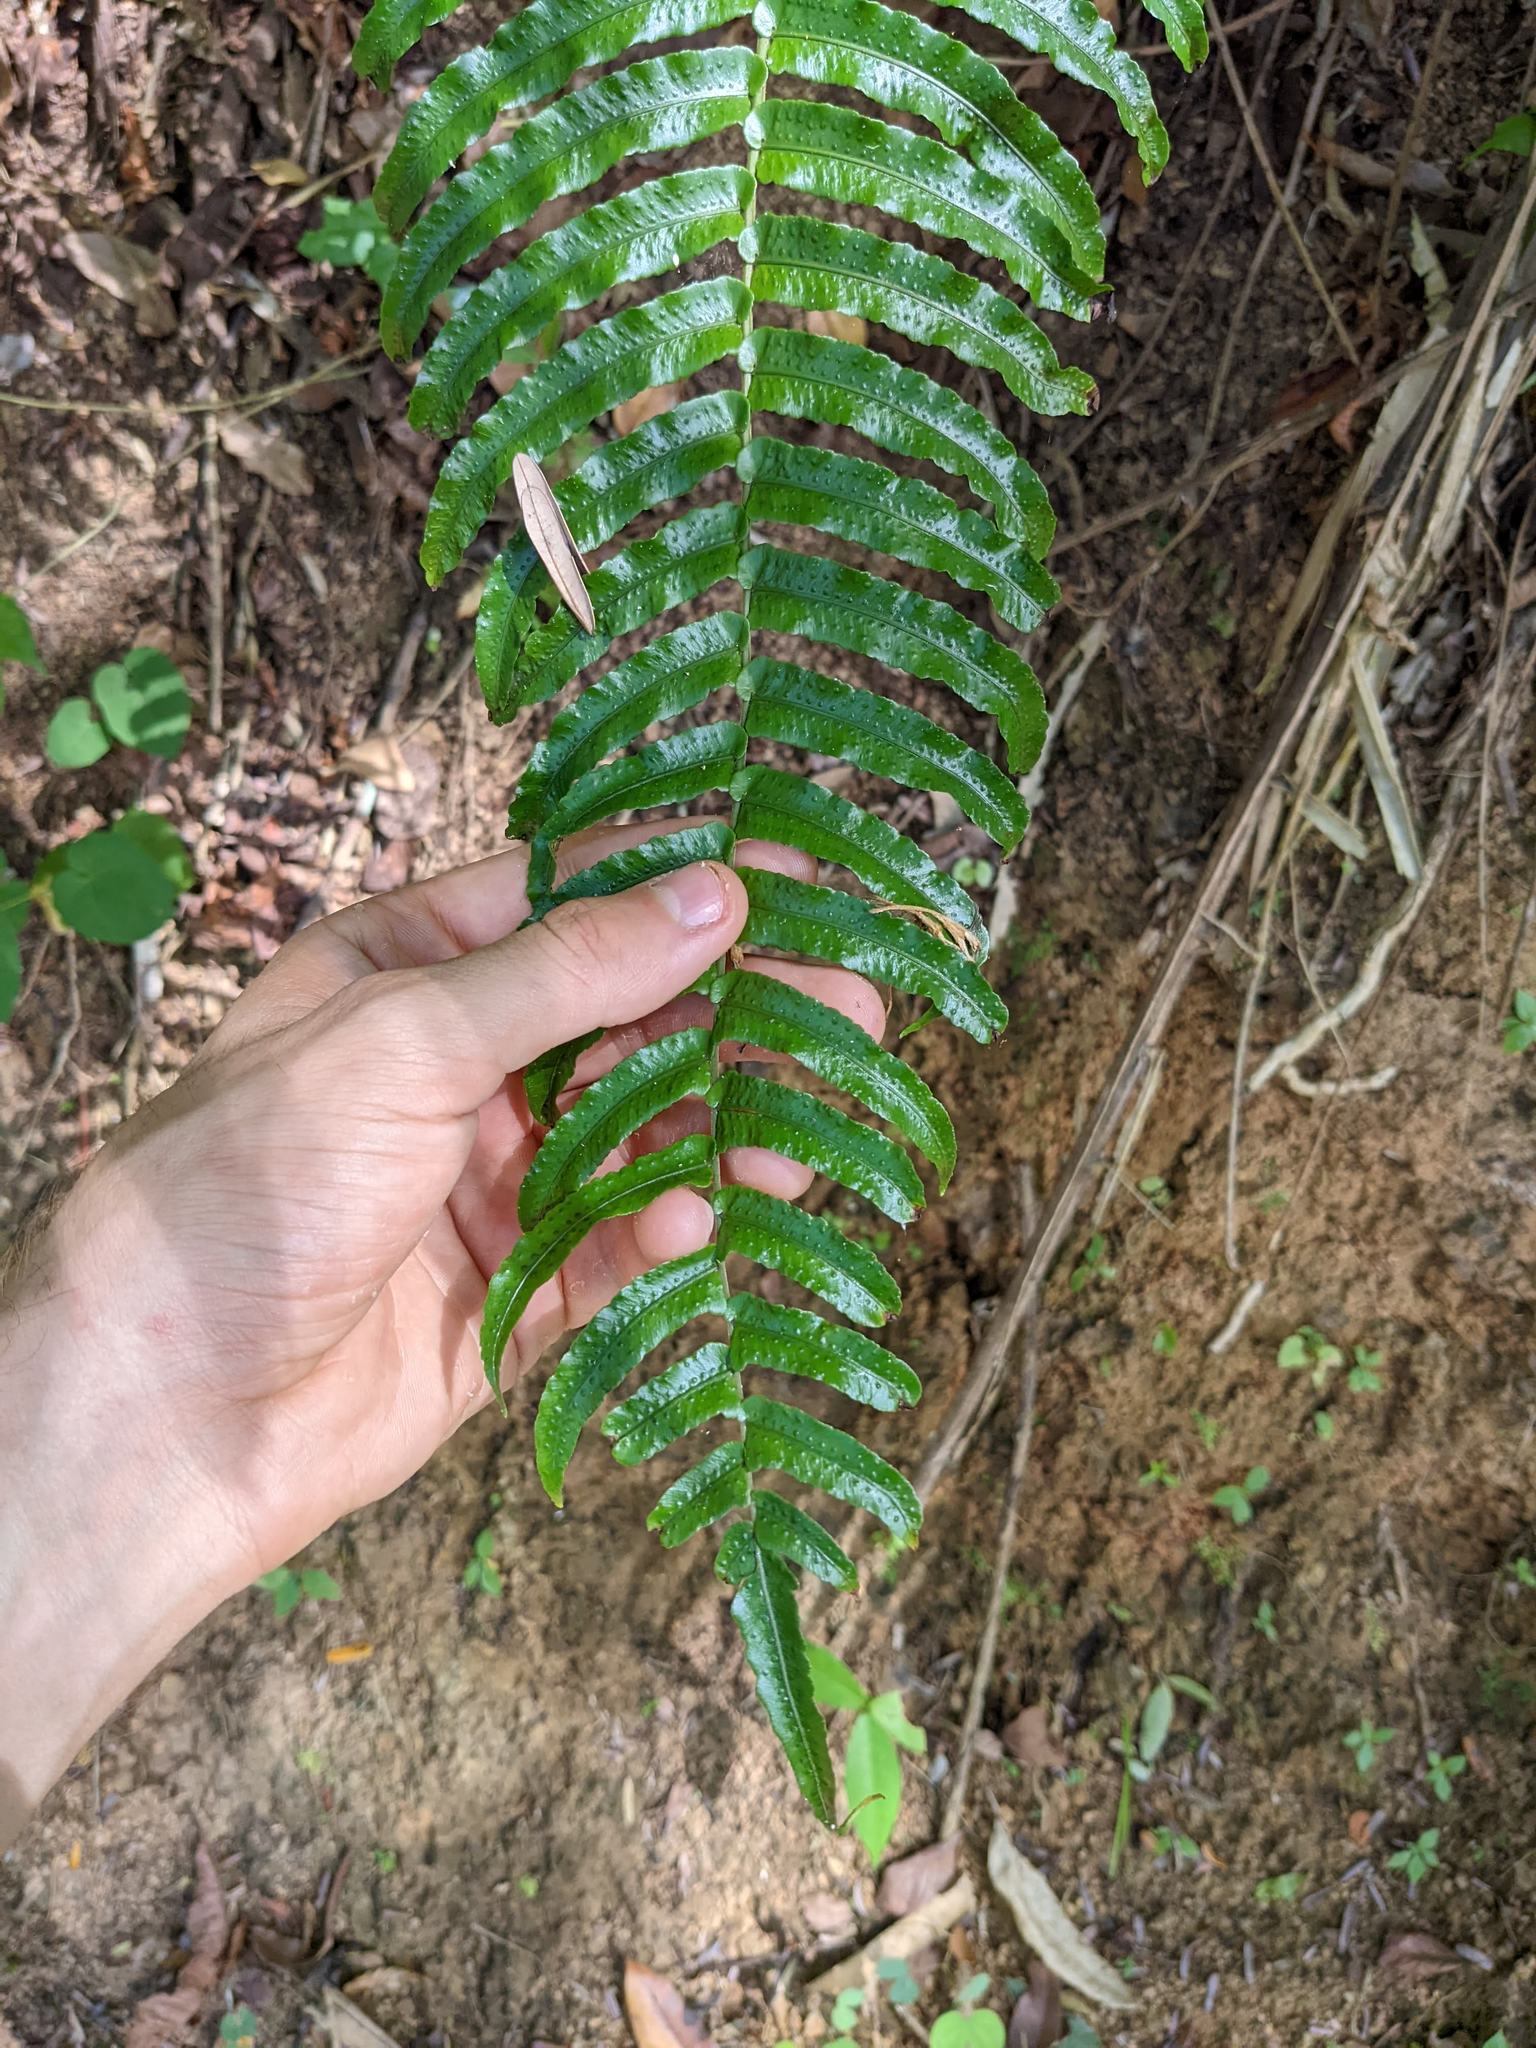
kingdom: Plantae
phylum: Tracheophyta
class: Polypodiopsida
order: Polypodiales
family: Lomariopsidaceae
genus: Cyclopeltis
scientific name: Cyclopeltis semicordata
